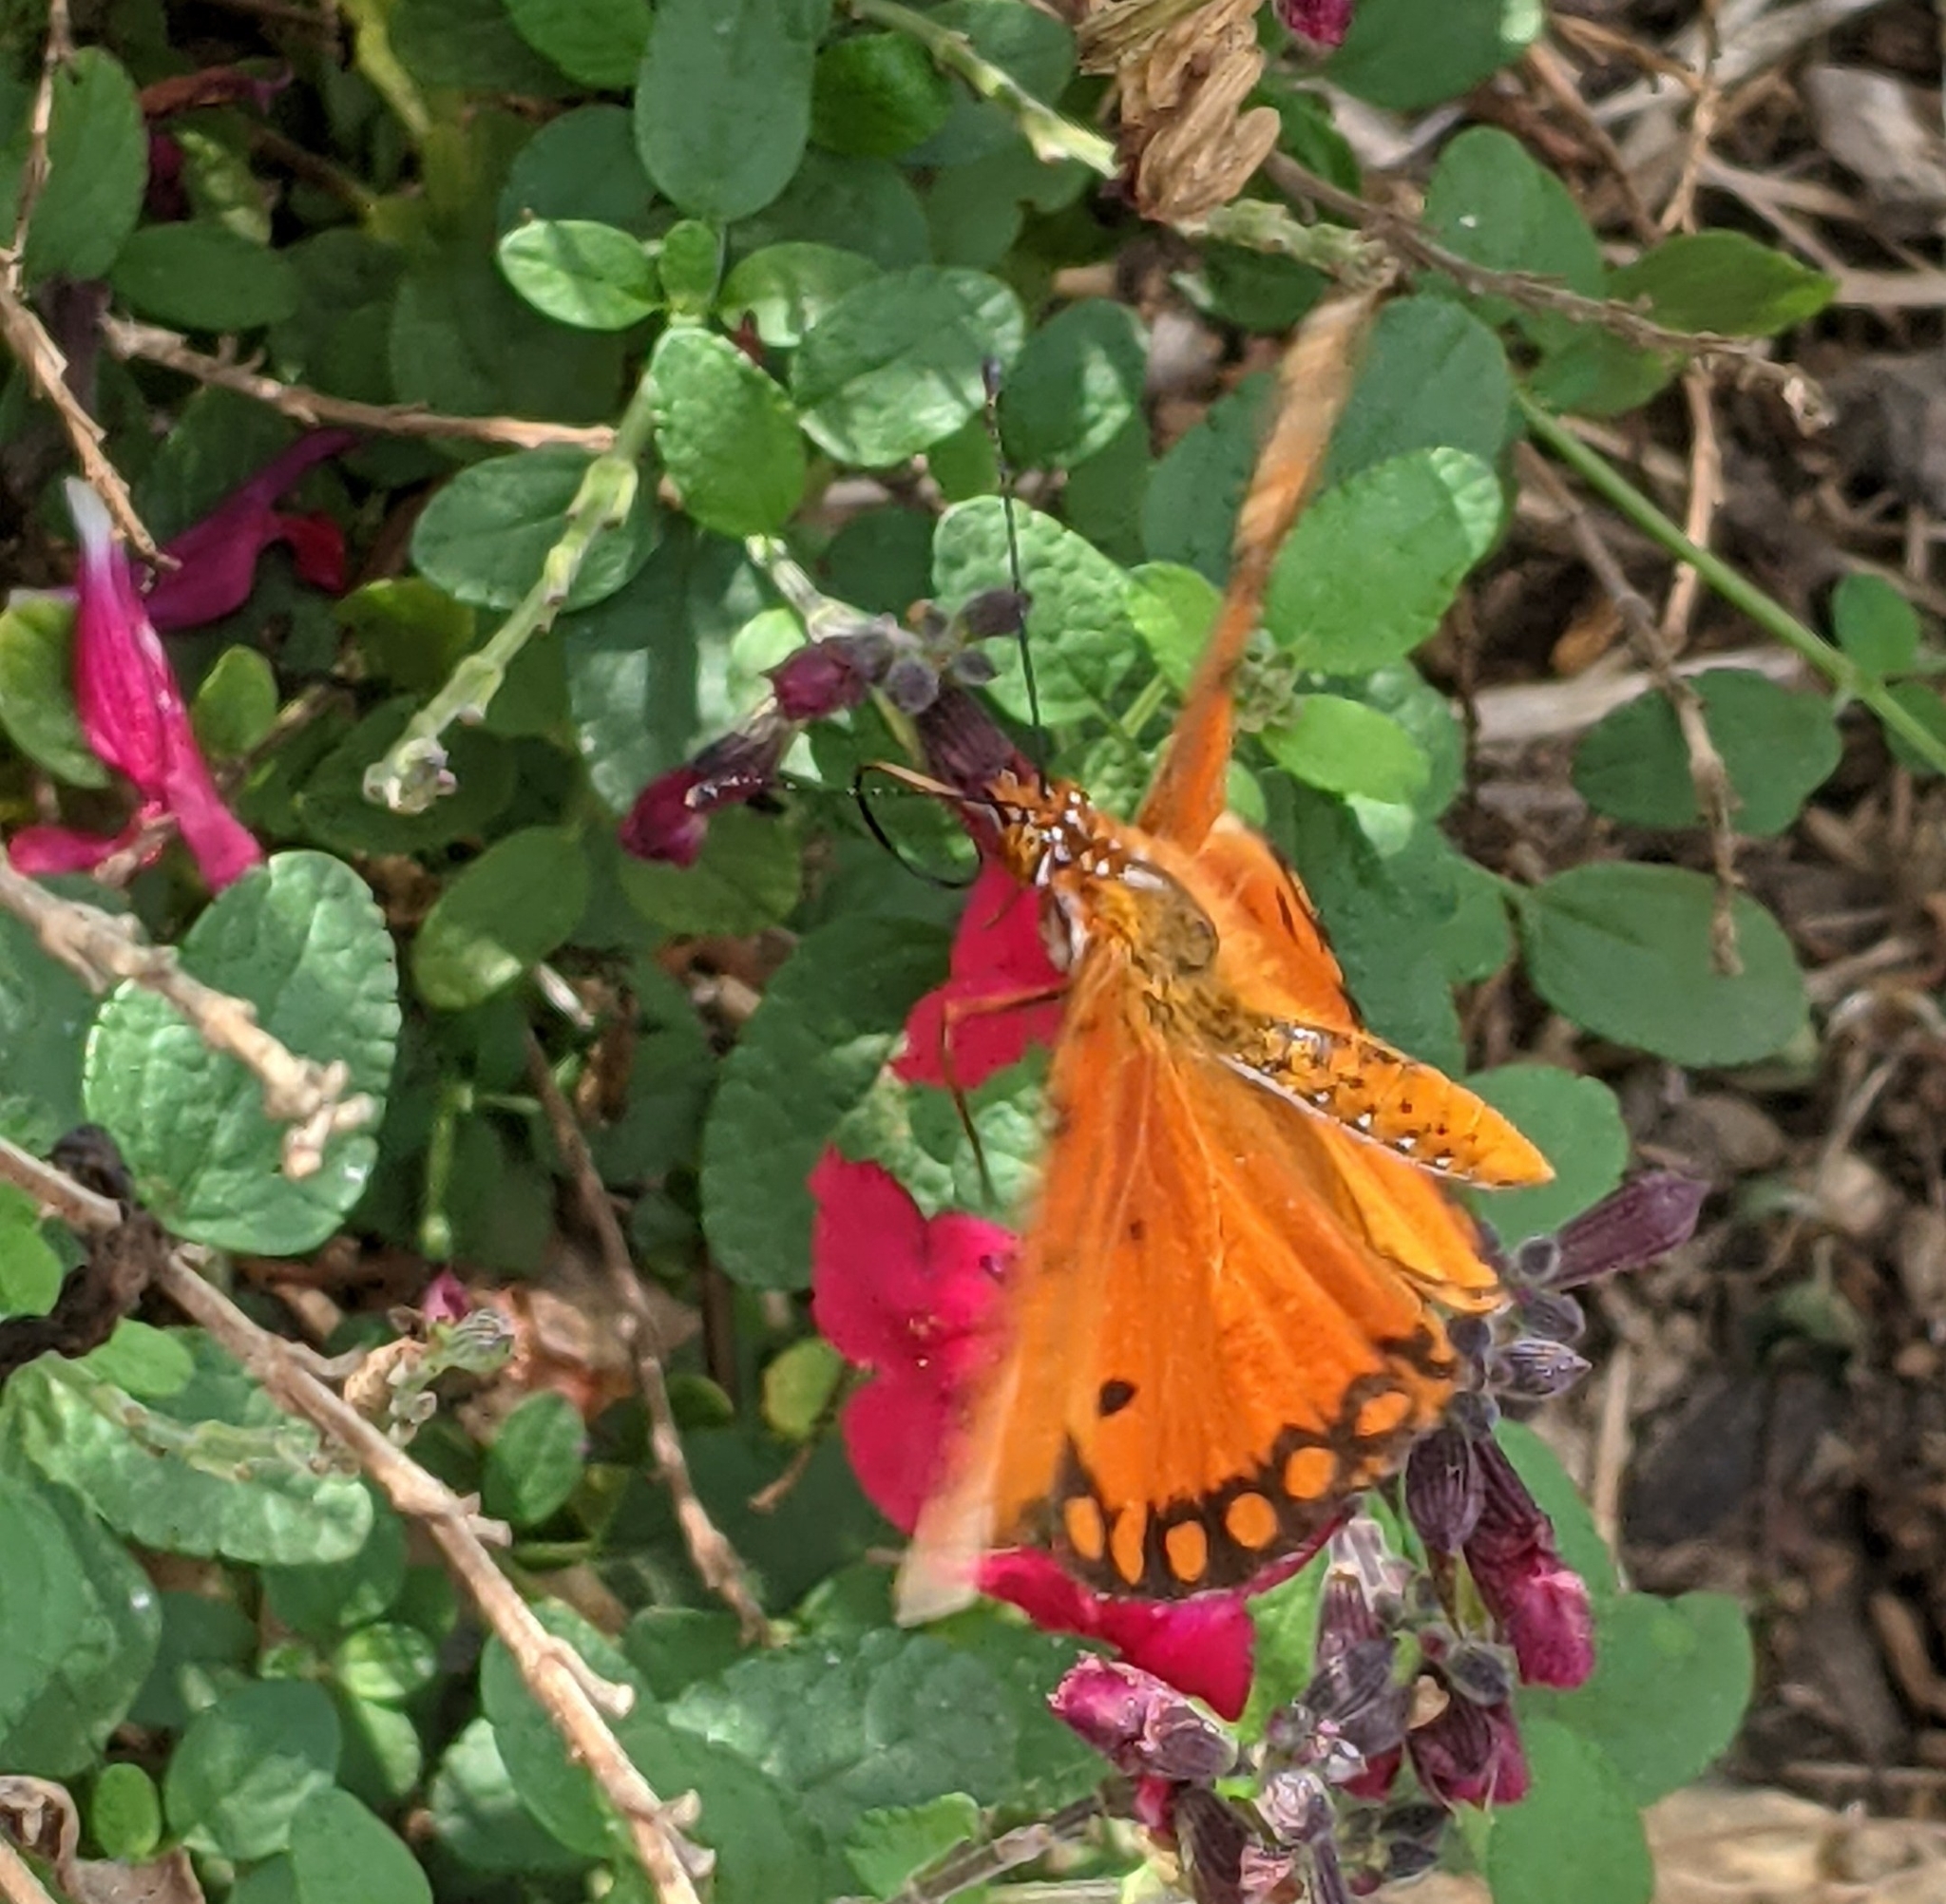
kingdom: Animalia
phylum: Arthropoda
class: Insecta
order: Lepidoptera
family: Nymphalidae
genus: Dione
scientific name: Dione vanillae
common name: Gulf fritillary
